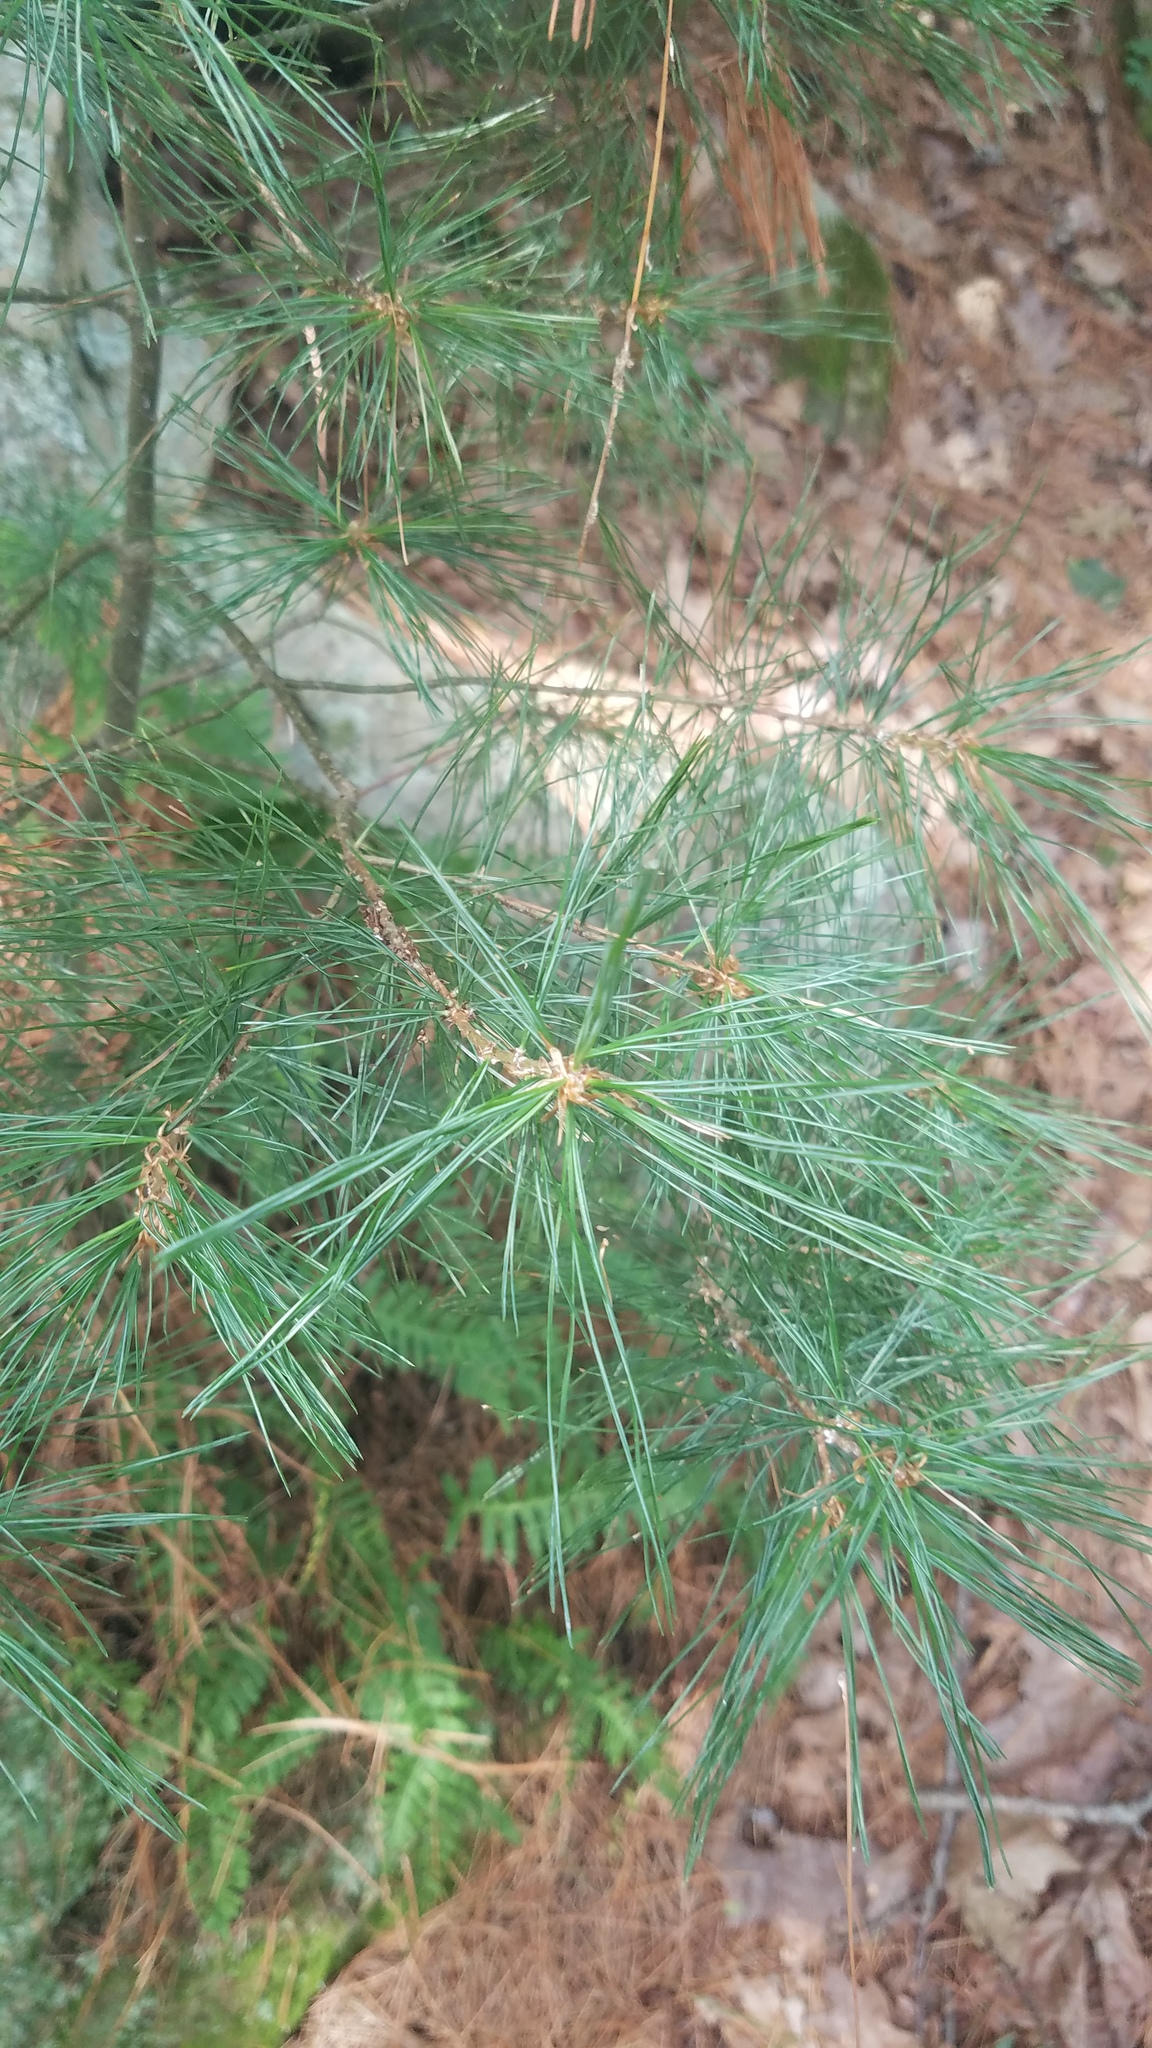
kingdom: Plantae
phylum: Tracheophyta
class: Pinopsida
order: Pinales
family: Pinaceae
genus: Pinus
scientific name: Pinus strobus
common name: Weymouth pine
